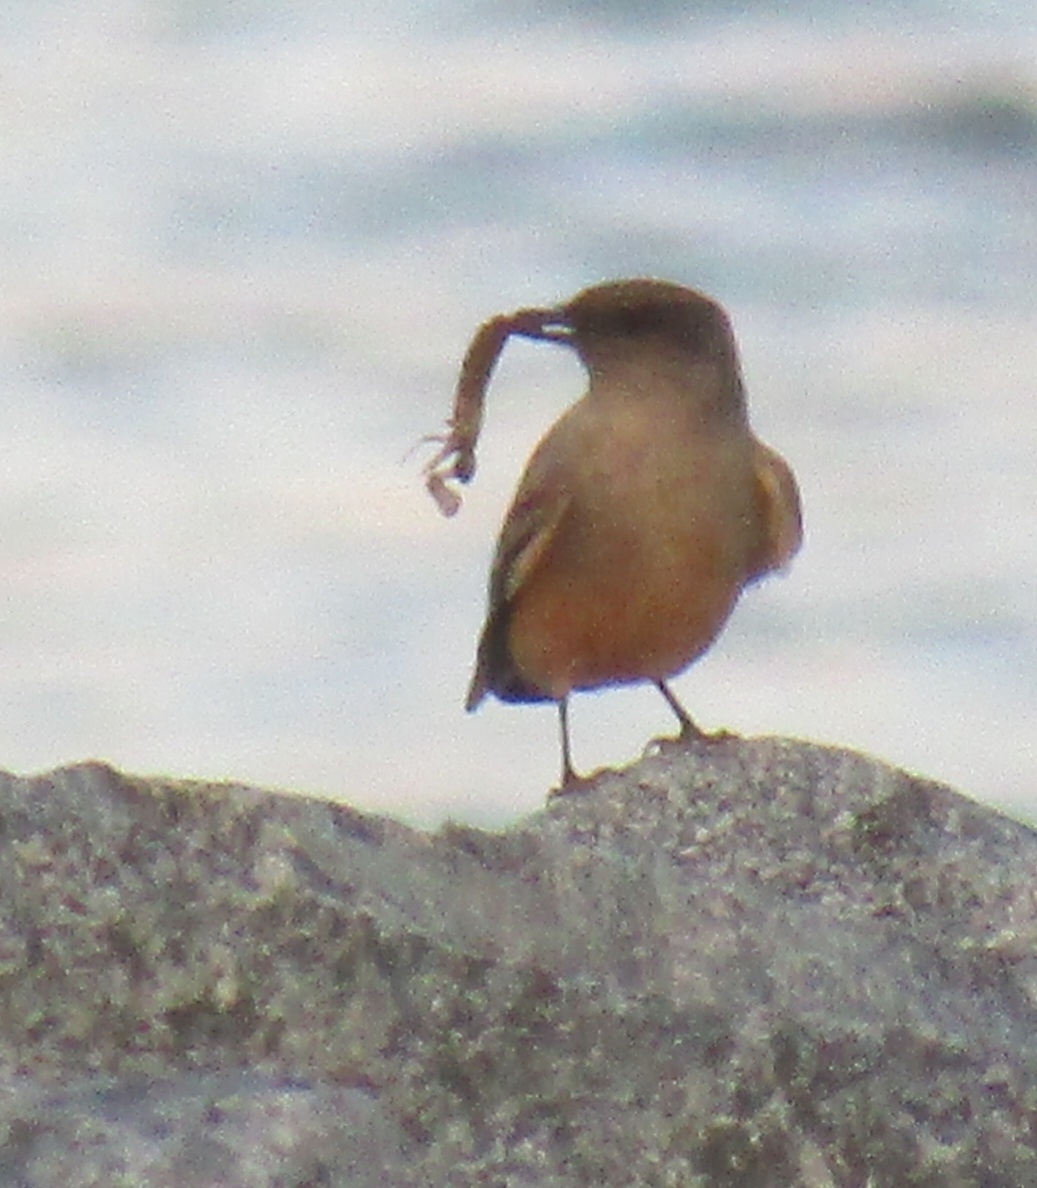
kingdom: Animalia
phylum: Chordata
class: Aves
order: Passeriformes
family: Tyrannidae
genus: Sayornis
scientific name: Sayornis saya
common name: Say's phoebe
